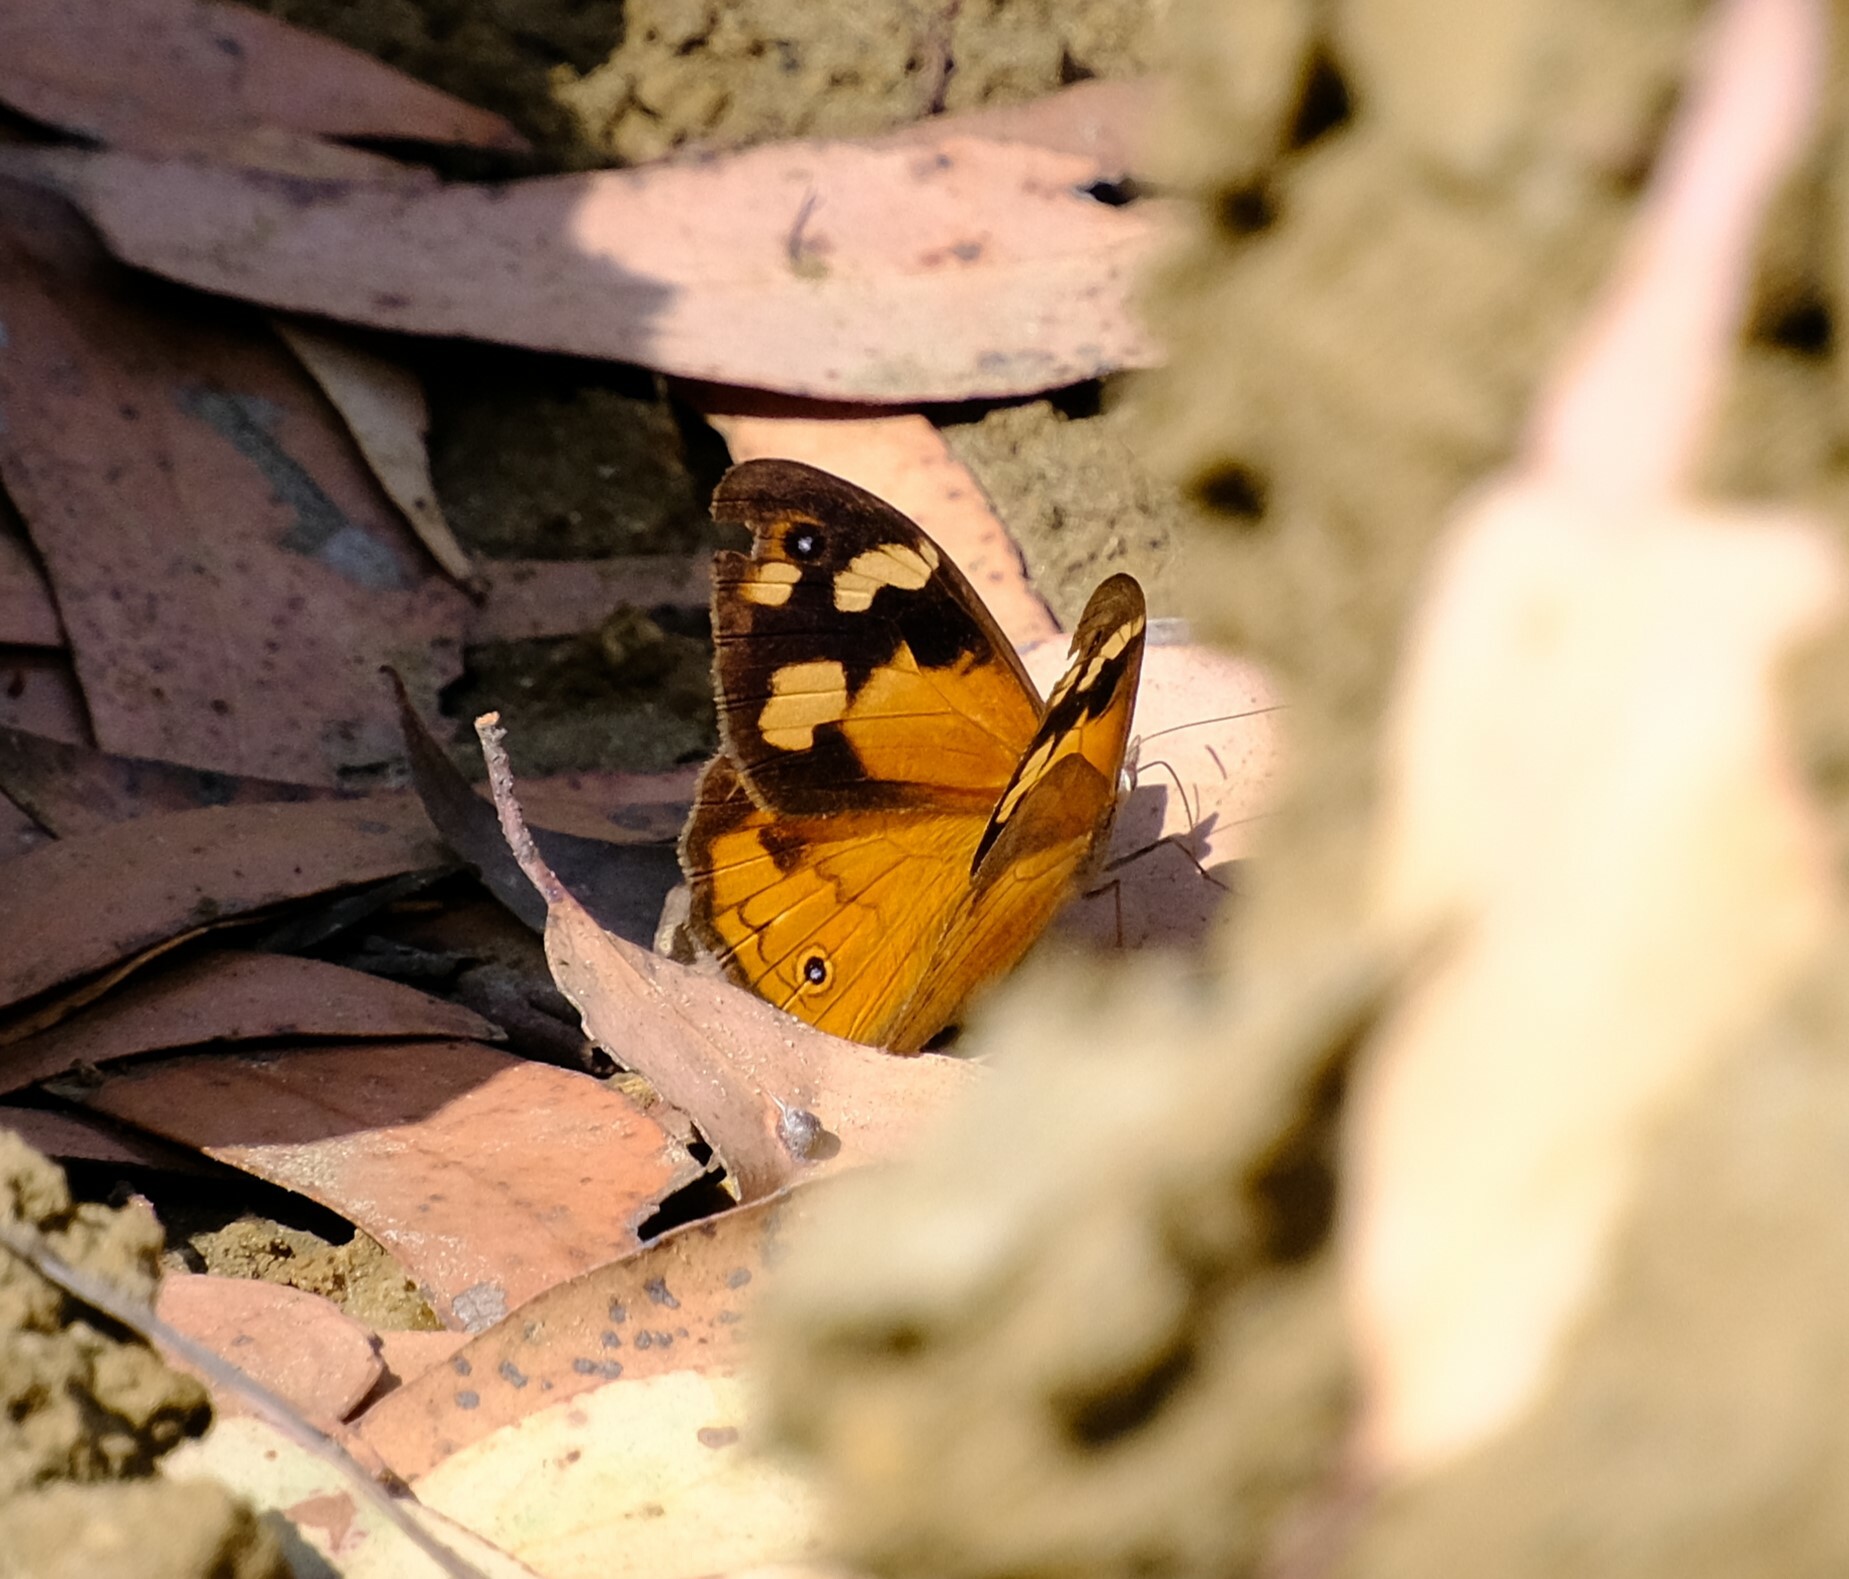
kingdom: Animalia
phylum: Arthropoda
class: Insecta
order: Lepidoptera
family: Nymphalidae
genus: Heteronympha
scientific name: Heteronympha merope
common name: Common brown
